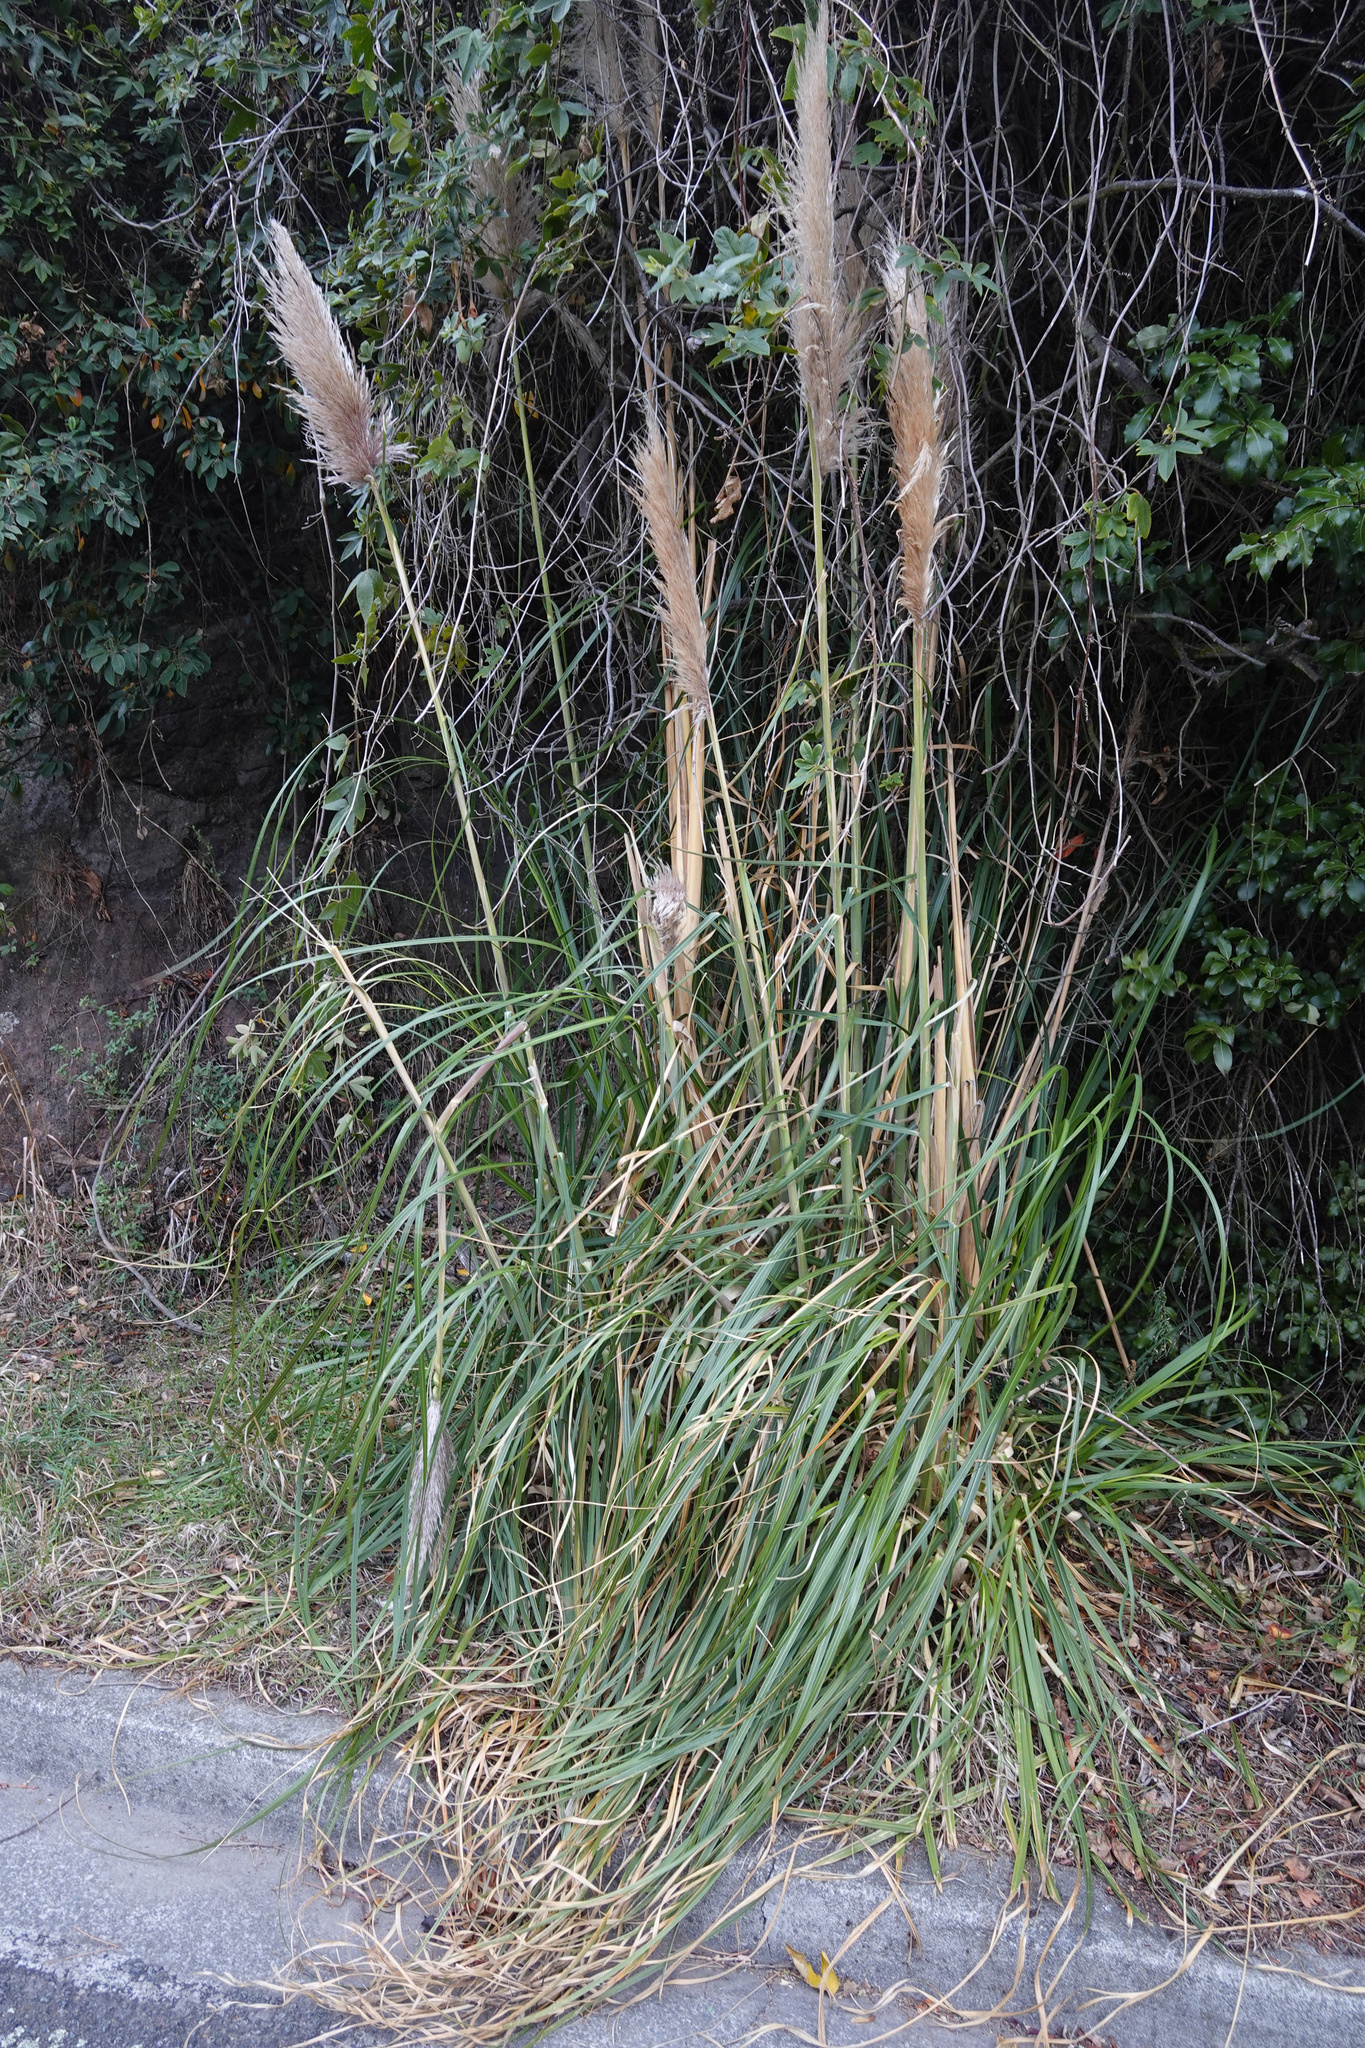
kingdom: Plantae
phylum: Tracheophyta
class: Liliopsida
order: Poales
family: Poaceae
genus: Cortaderia
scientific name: Cortaderia selloana
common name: Uruguayan pampas grass
